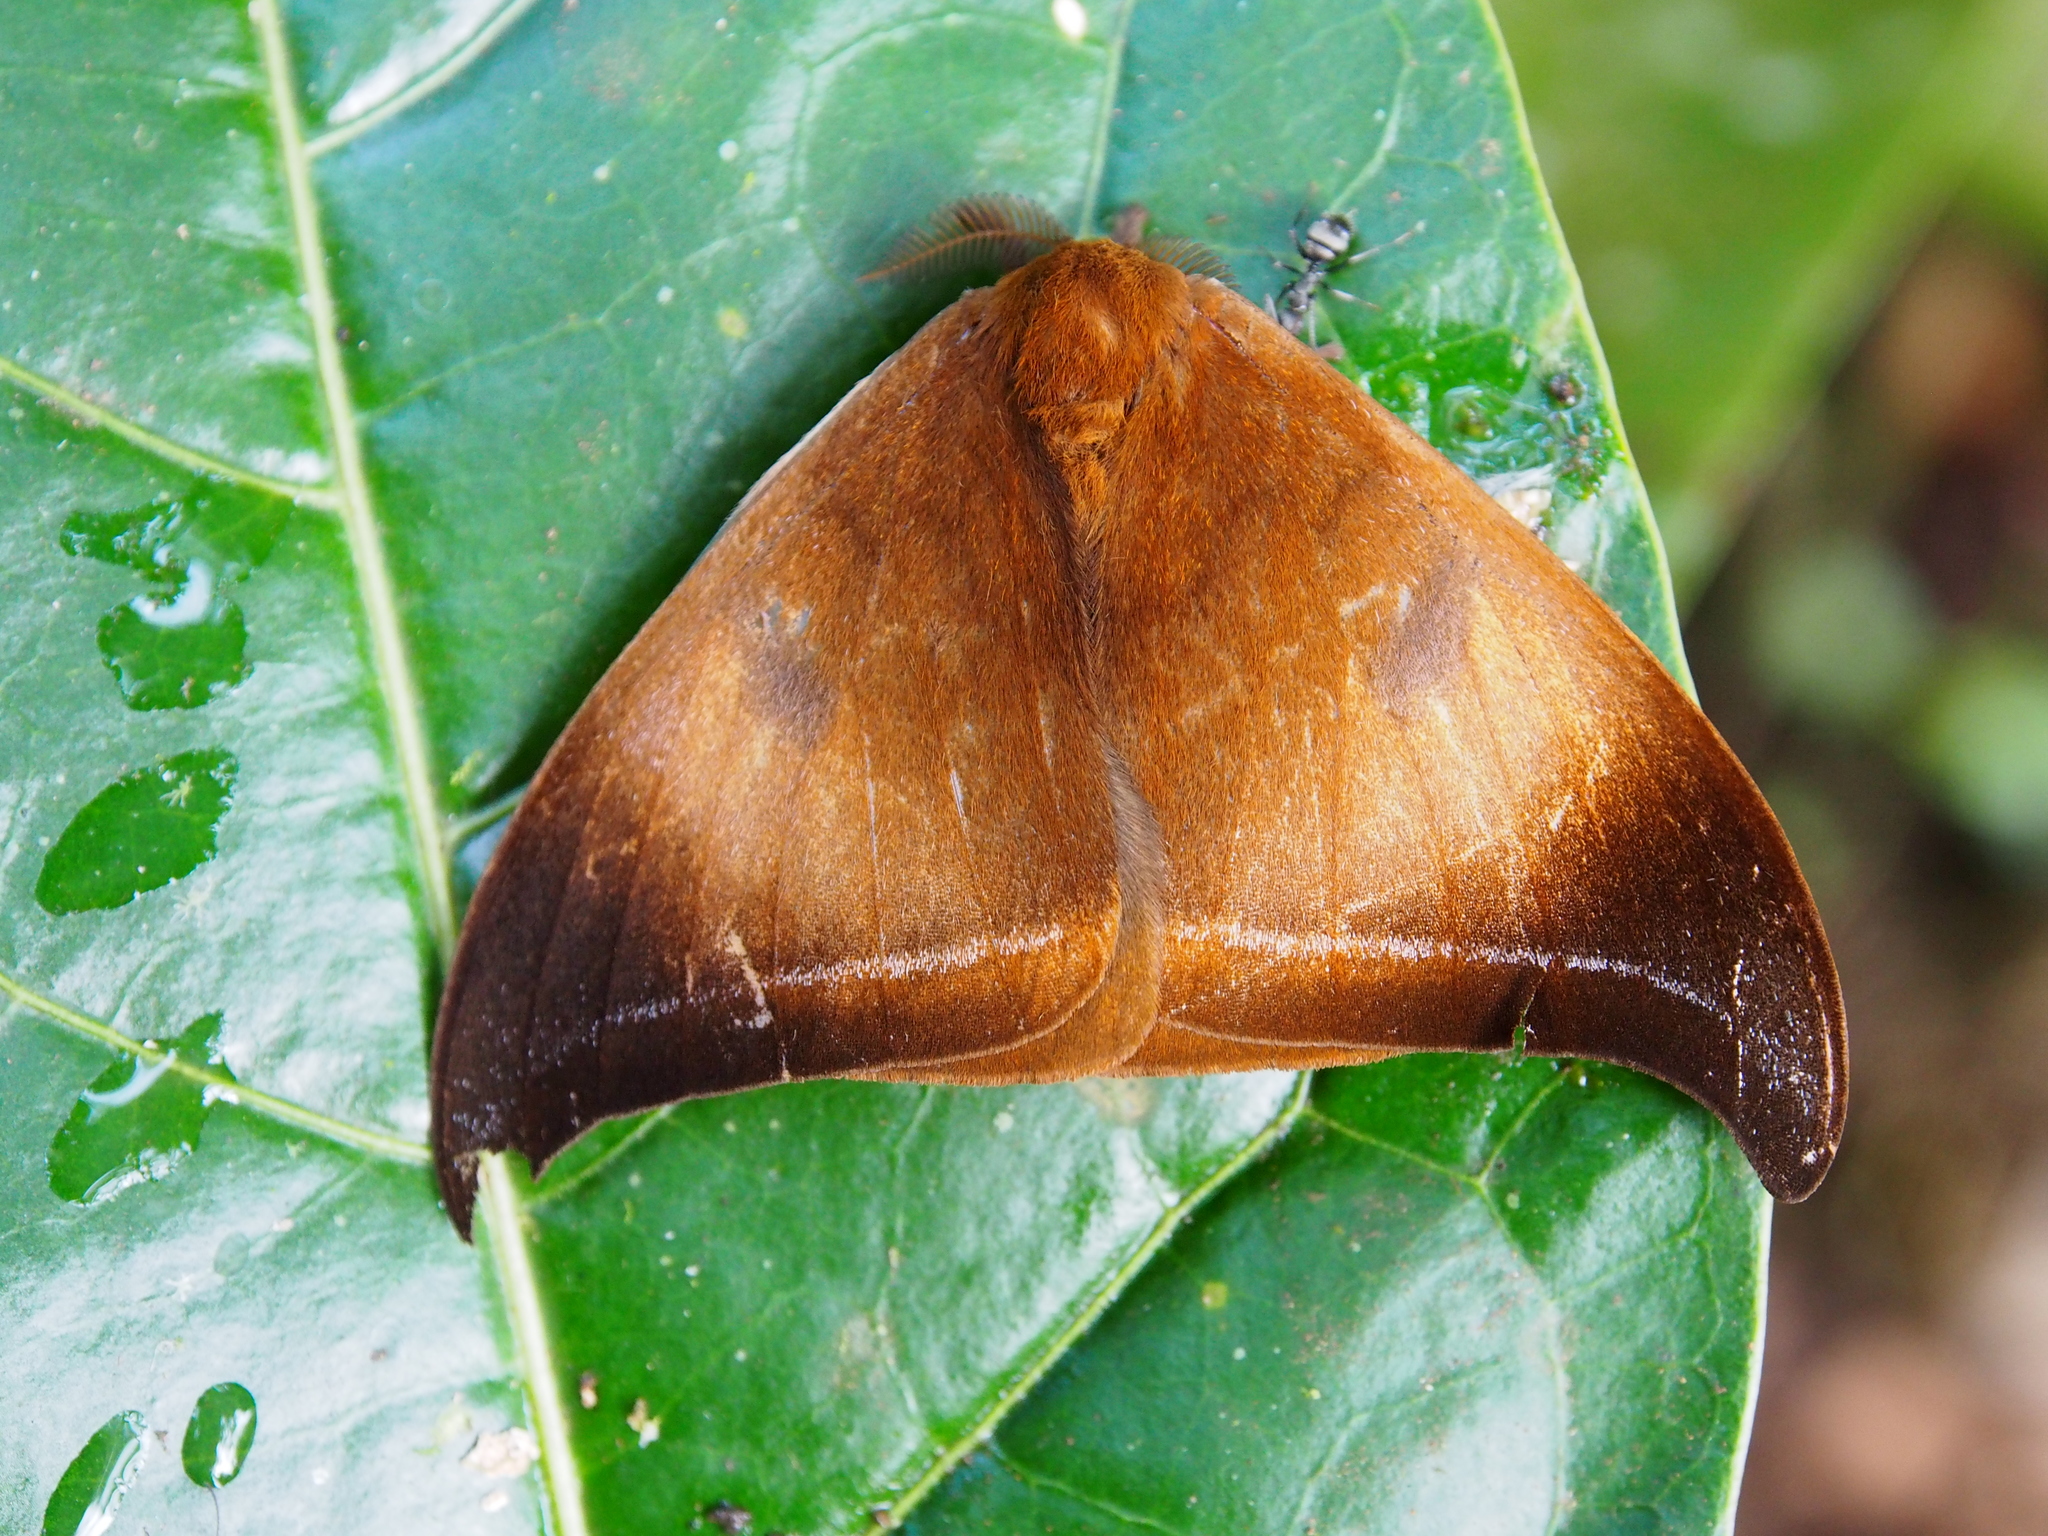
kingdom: Animalia
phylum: Arthropoda
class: Insecta
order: Lepidoptera
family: Saturniidae
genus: Automeris
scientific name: Automeris phrynon
